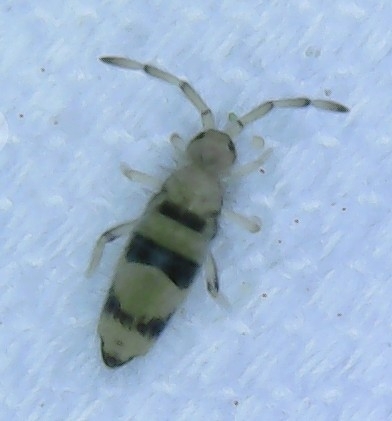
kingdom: Animalia
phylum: Arthropoda
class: Collembola
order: Entomobryomorpha
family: Entomobryidae
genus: Entomobrya
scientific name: Entomobrya triangularis
